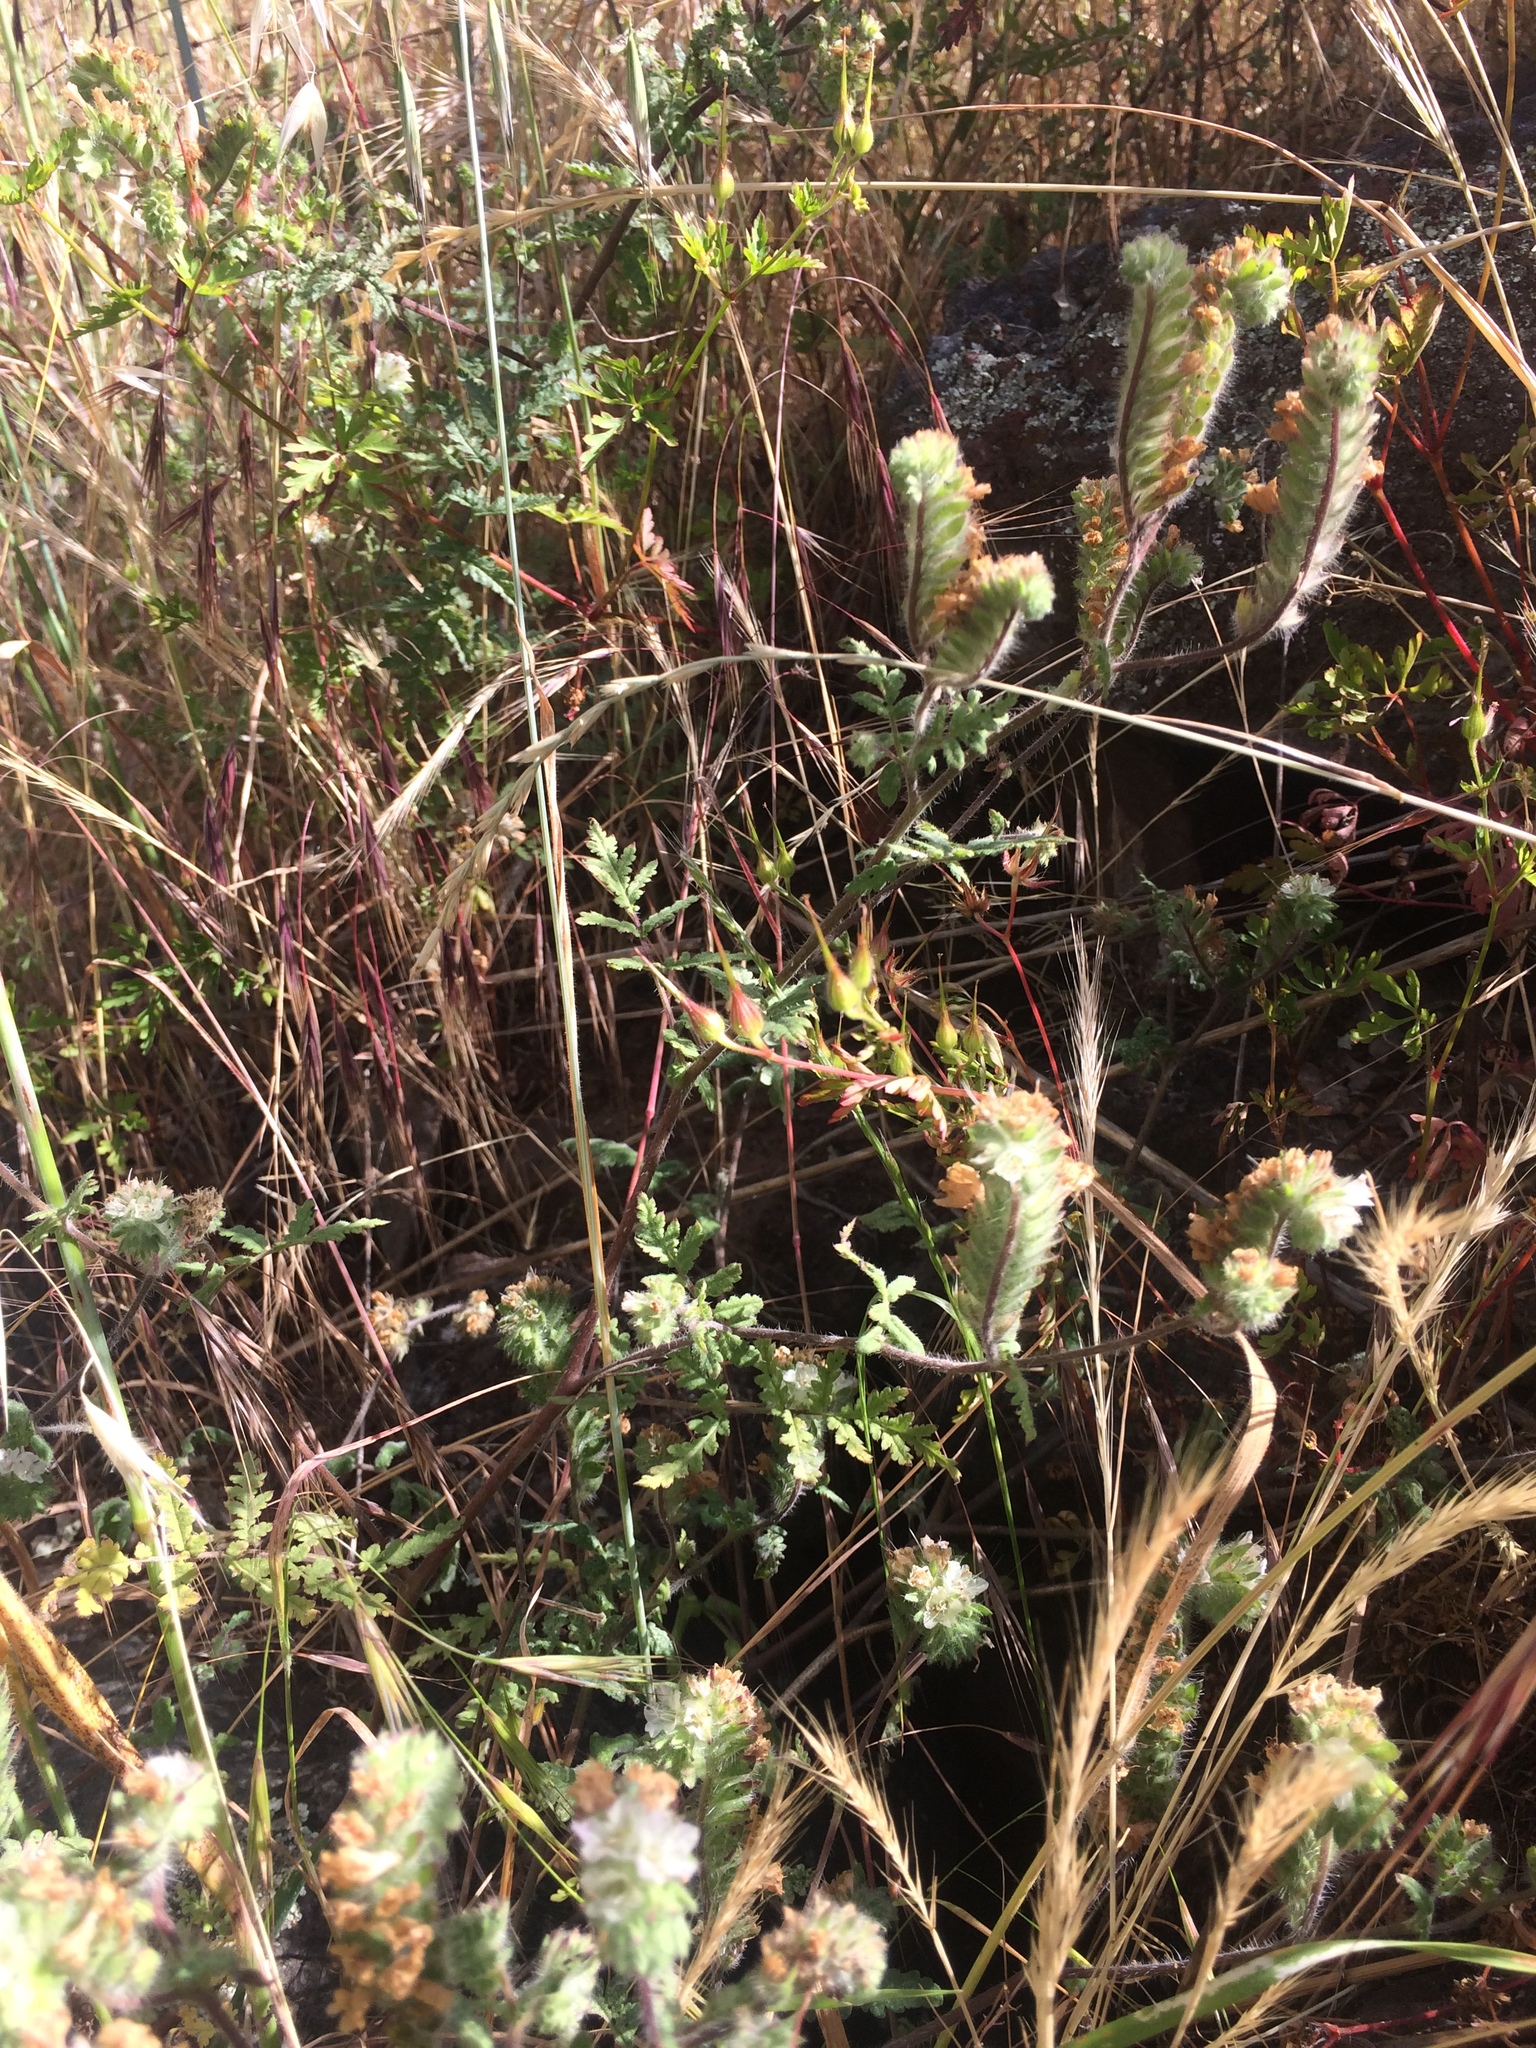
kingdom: Plantae
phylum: Tracheophyta
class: Magnoliopsida
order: Boraginales
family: Hydrophyllaceae
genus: Phacelia
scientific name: Phacelia distans
